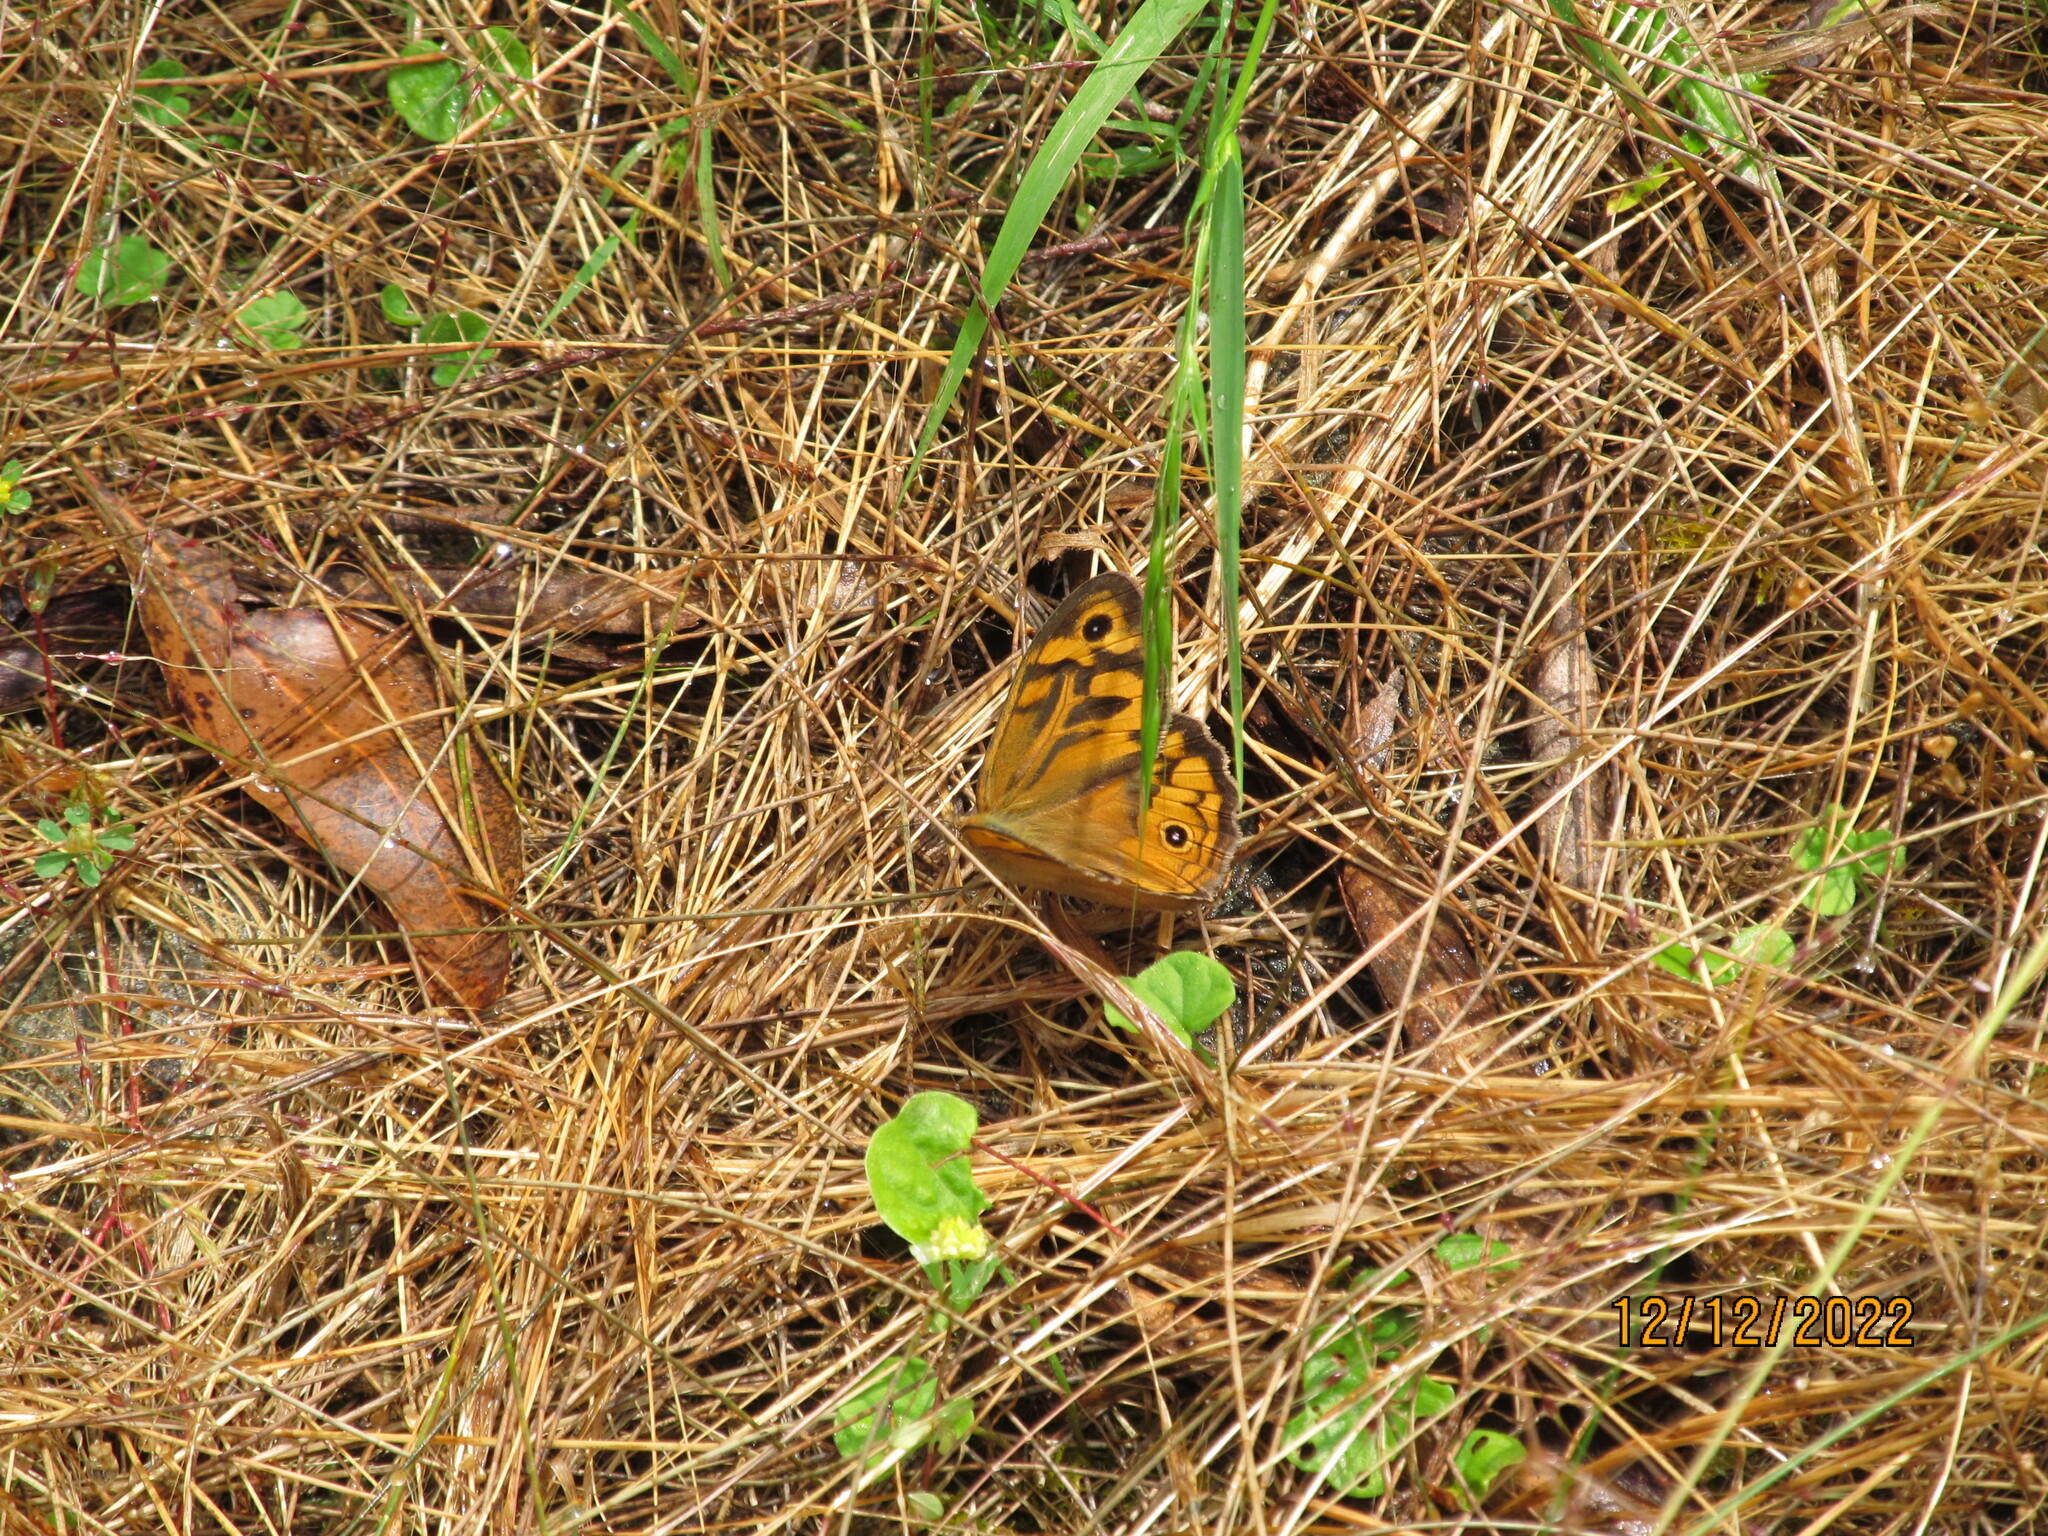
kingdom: Animalia
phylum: Arthropoda
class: Insecta
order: Lepidoptera
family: Nymphalidae
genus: Heteronympha
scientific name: Heteronympha merope
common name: Common brown
